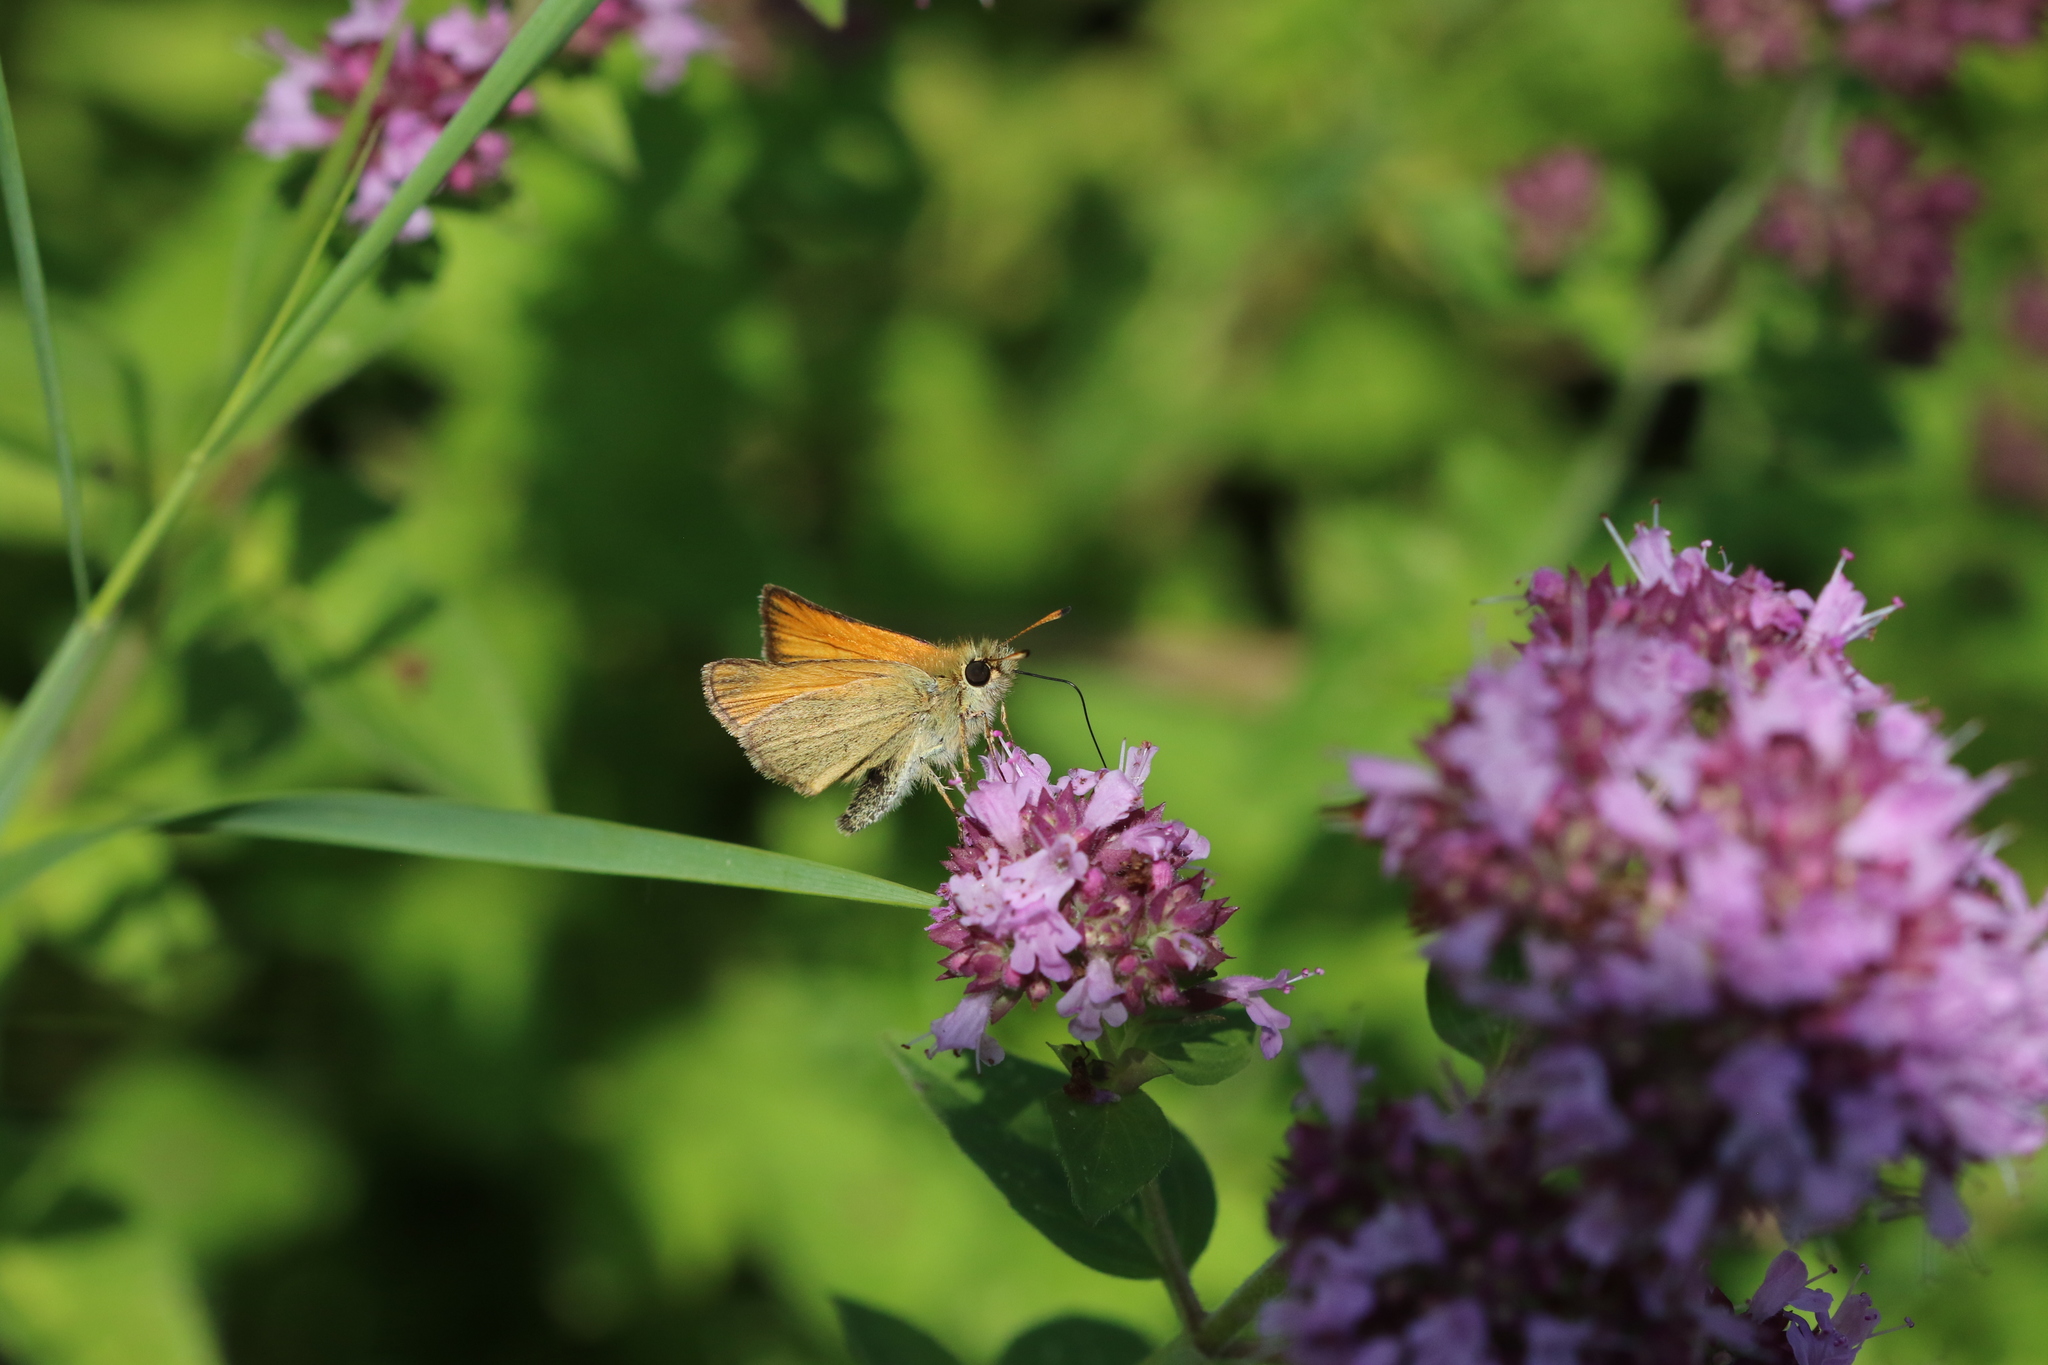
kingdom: Animalia
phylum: Arthropoda
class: Insecta
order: Lepidoptera
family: Hesperiidae
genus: Thymelicus
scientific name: Thymelicus lineola
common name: Essex skipper
